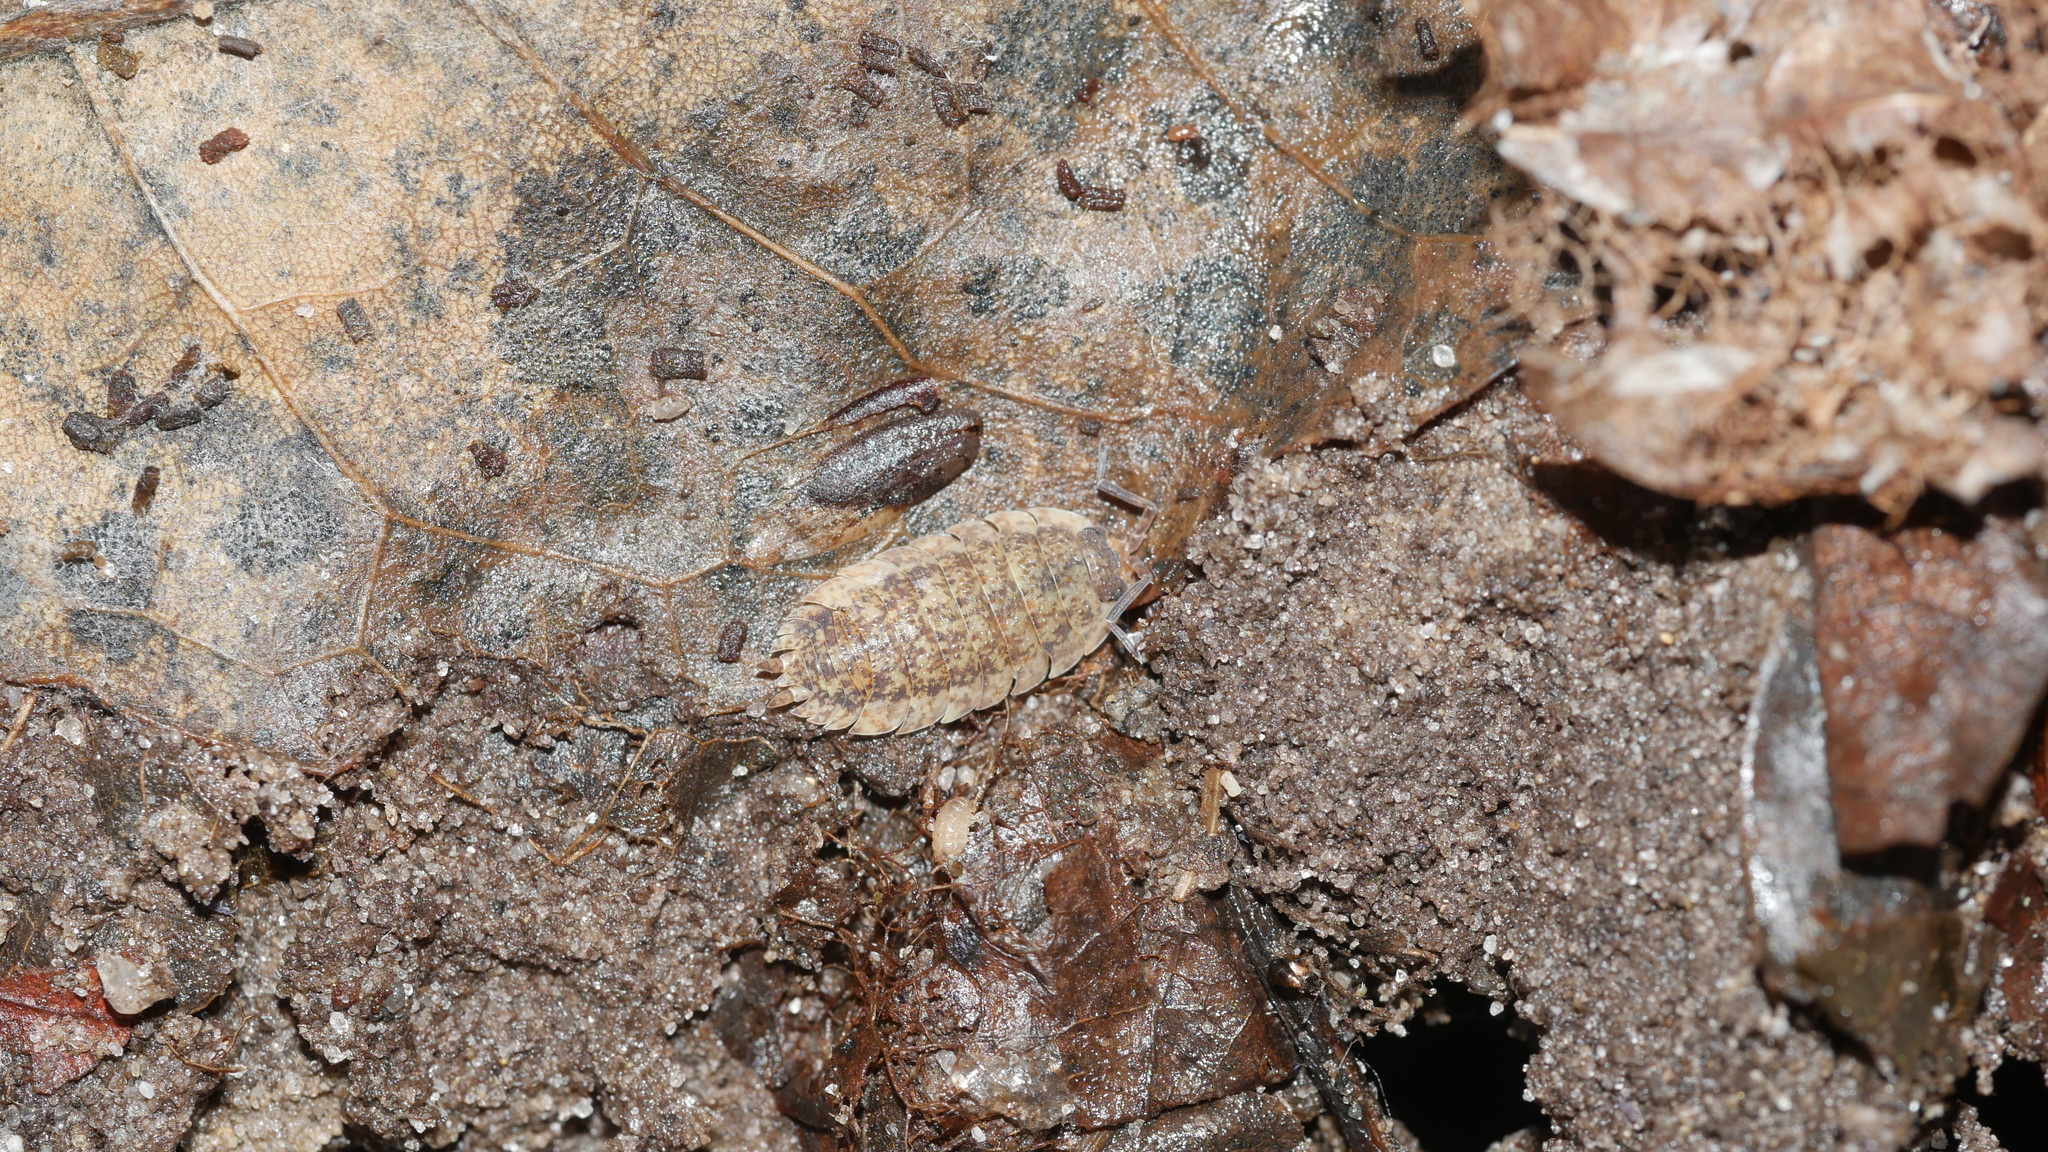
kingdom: Animalia
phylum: Arthropoda
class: Malacostraca
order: Isopoda
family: Porcellionidae
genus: Porcellio
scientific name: Porcellio scaber
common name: Common rough woodlouse
